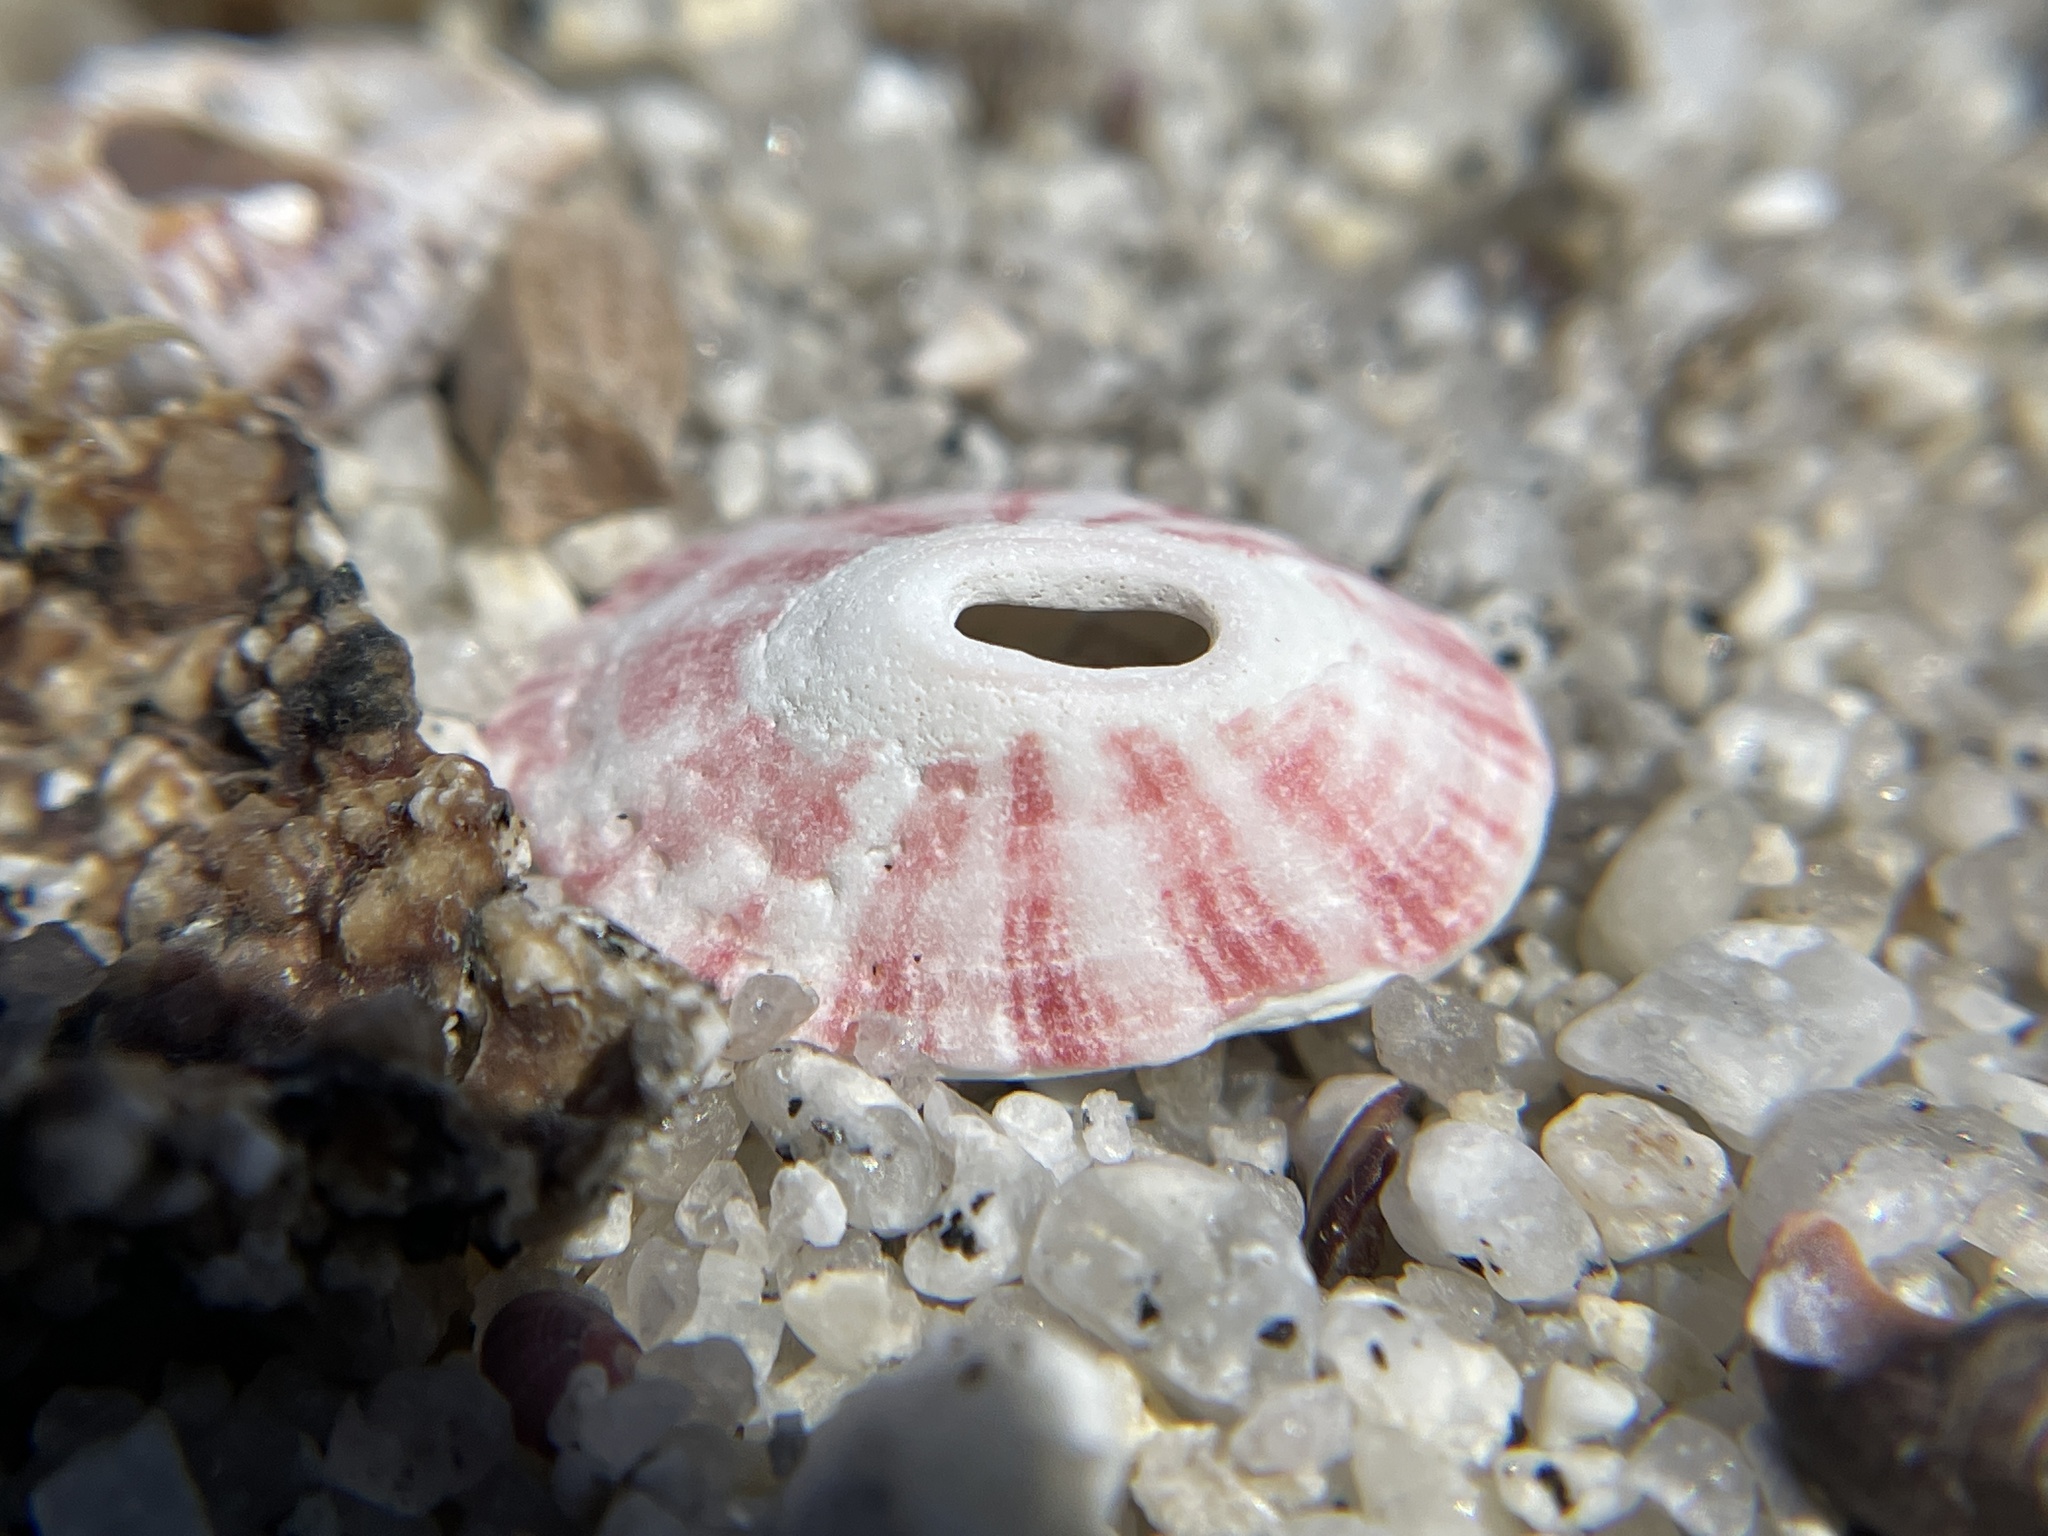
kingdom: Animalia
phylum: Mollusca
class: Gastropoda
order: Lepetellida
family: Fissurellidae
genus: Fissurella
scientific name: Fissurella volcano
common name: Volcano keyhole limpet
